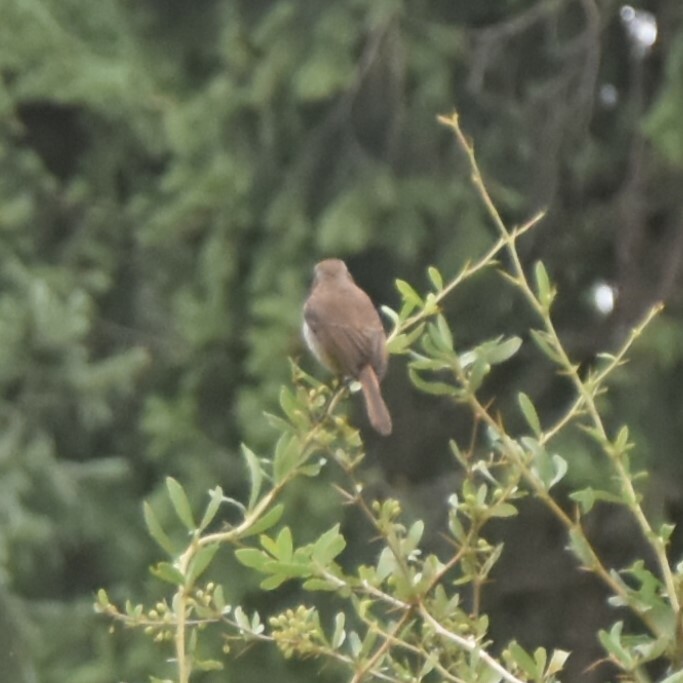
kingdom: Animalia
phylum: Chordata
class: Aves
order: Passeriformes
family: Muscicapidae
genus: Saxicola
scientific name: Saxicola ferreus
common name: Grey bush chat
